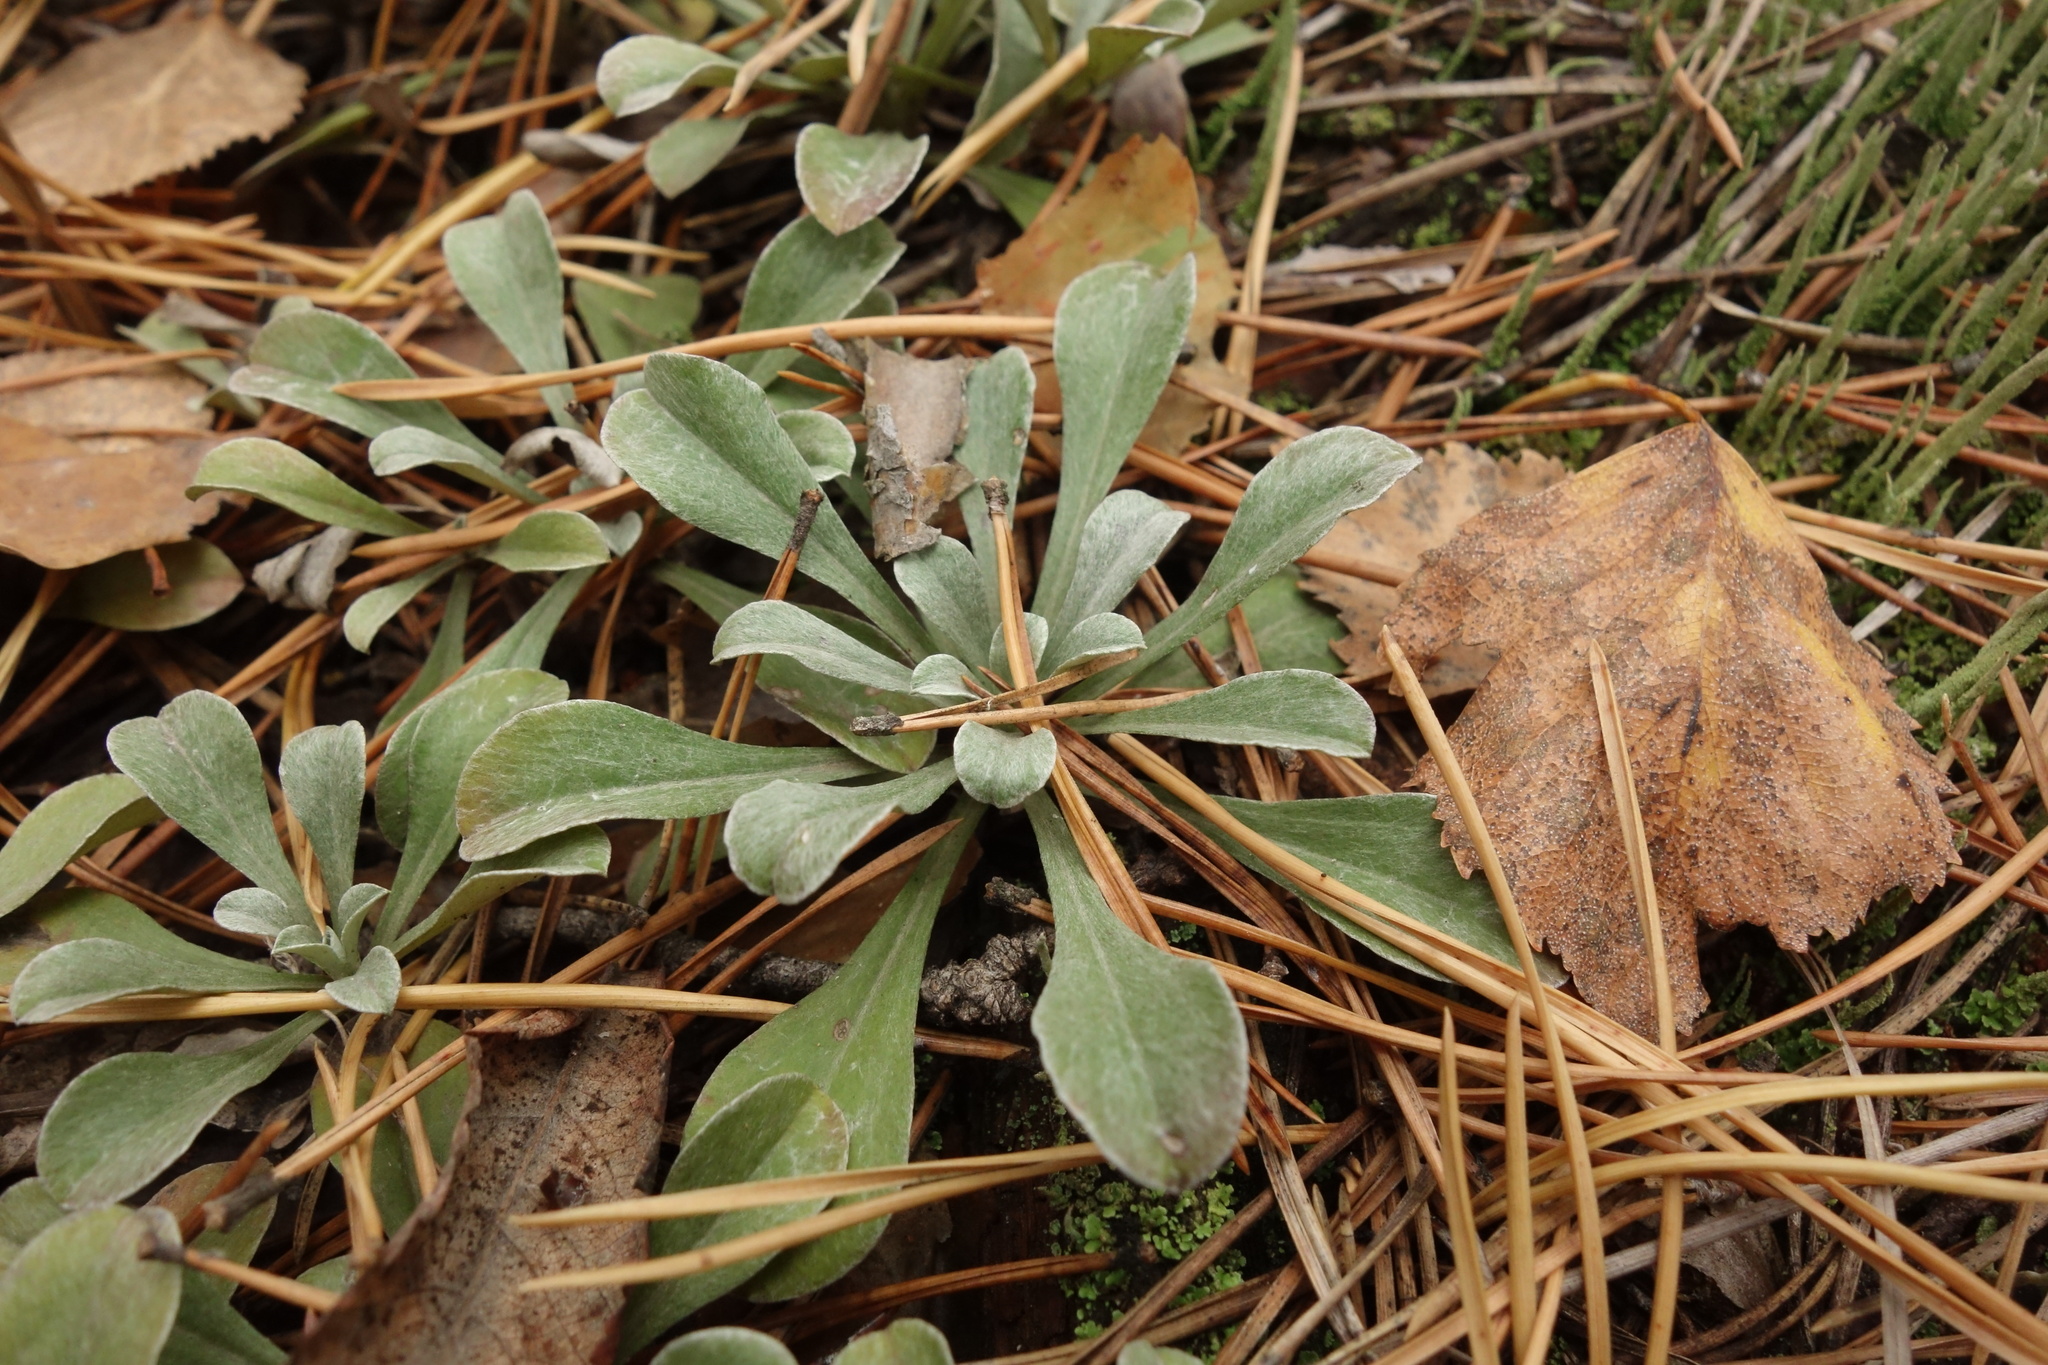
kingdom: Plantae
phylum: Tracheophyta
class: Magnoliopsida
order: Asterales
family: Asteraceae
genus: Antennaria
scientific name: Antennaria dioica
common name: Mountain everlasting
